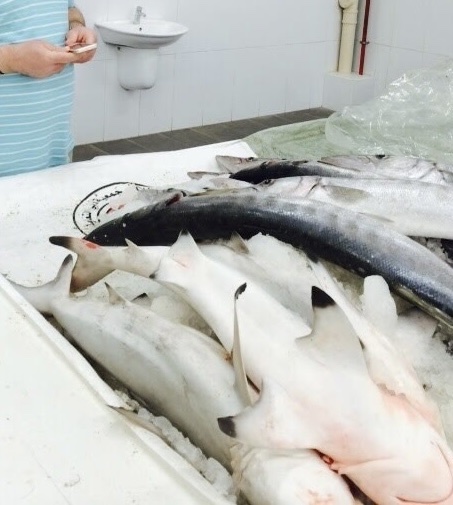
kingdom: Animalia
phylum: Chordata
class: Elasmobranchii
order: Carcharhiniformes
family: Carcharhinidae
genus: Carcharhinus
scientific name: Carcharhinus limbatus
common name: Blacktip shark
